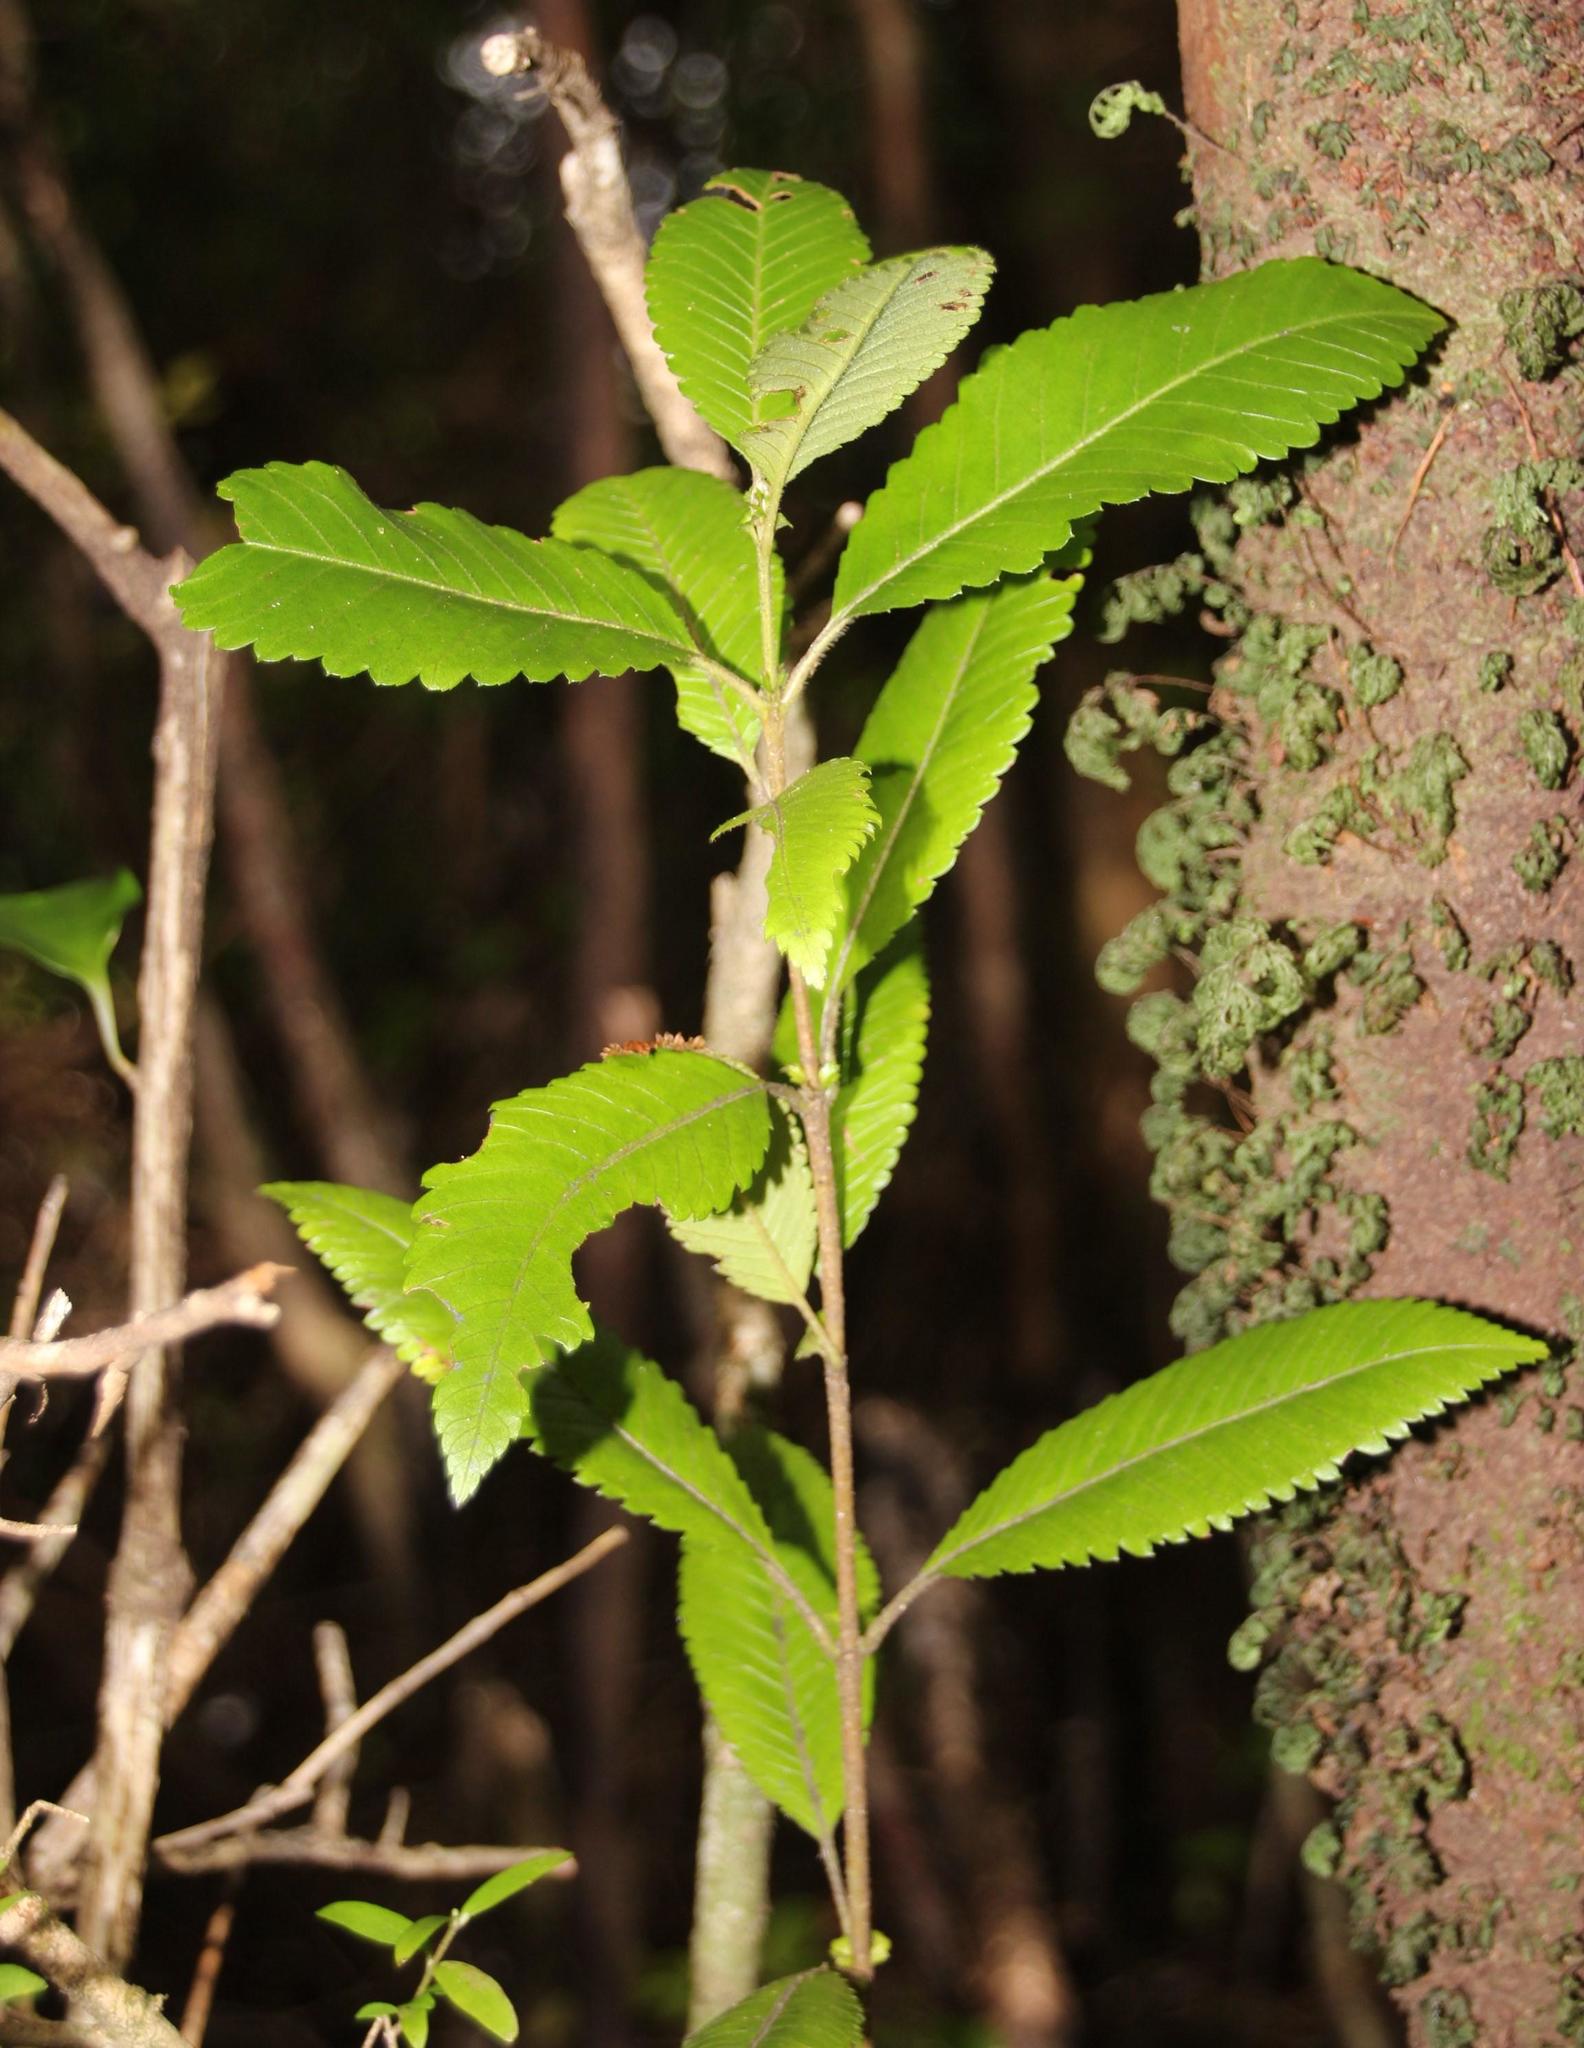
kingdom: Plantae
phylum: Tracheophyta
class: Magnoliopsida
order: Oxalidales
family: Cunoniaceae
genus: Caldcluvia
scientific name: Caldcluvia paniculata
